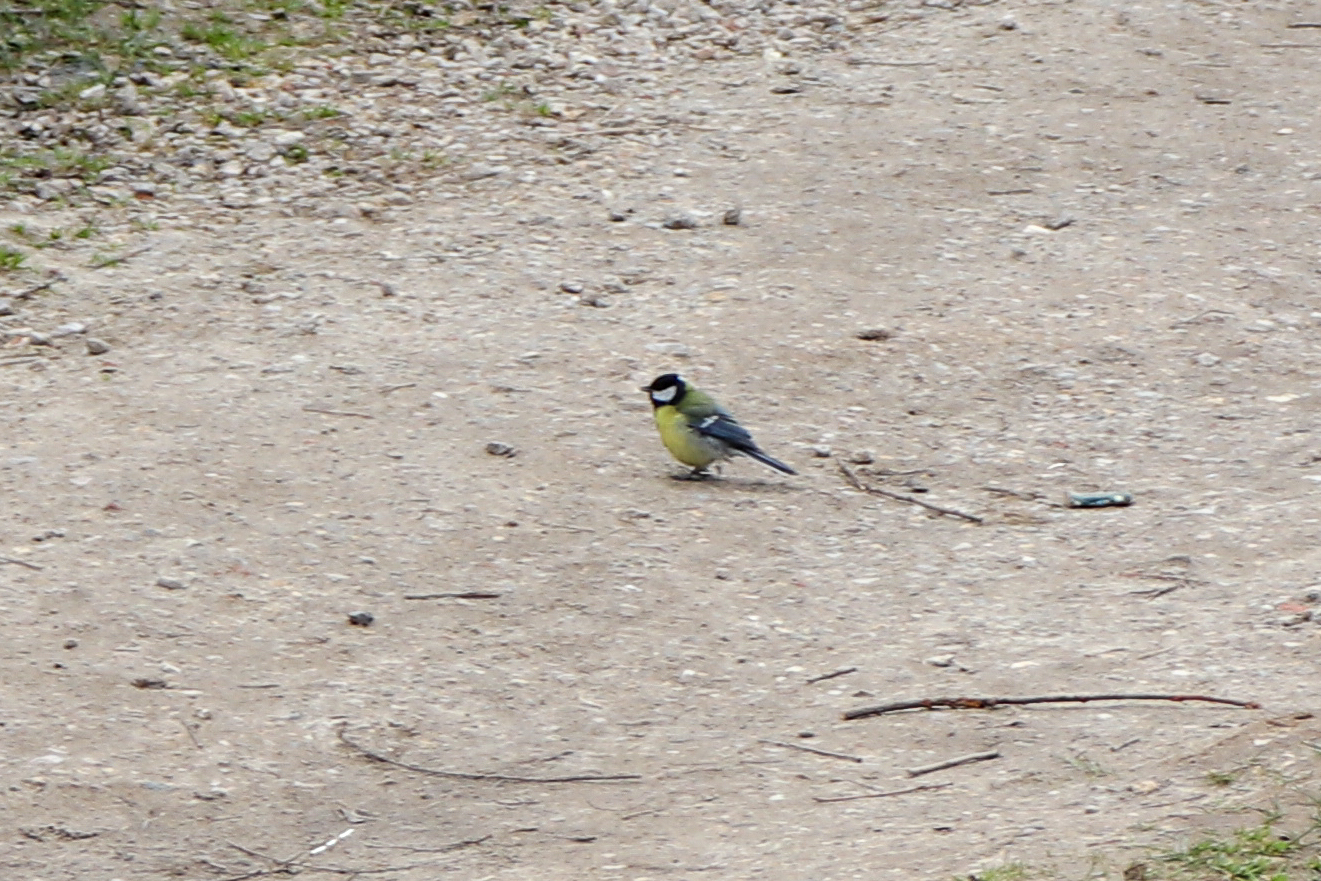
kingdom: Animalia
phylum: Chordata
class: Aves
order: Passeriformes
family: Paridae
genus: Parus
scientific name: Parus major
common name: Great tit
